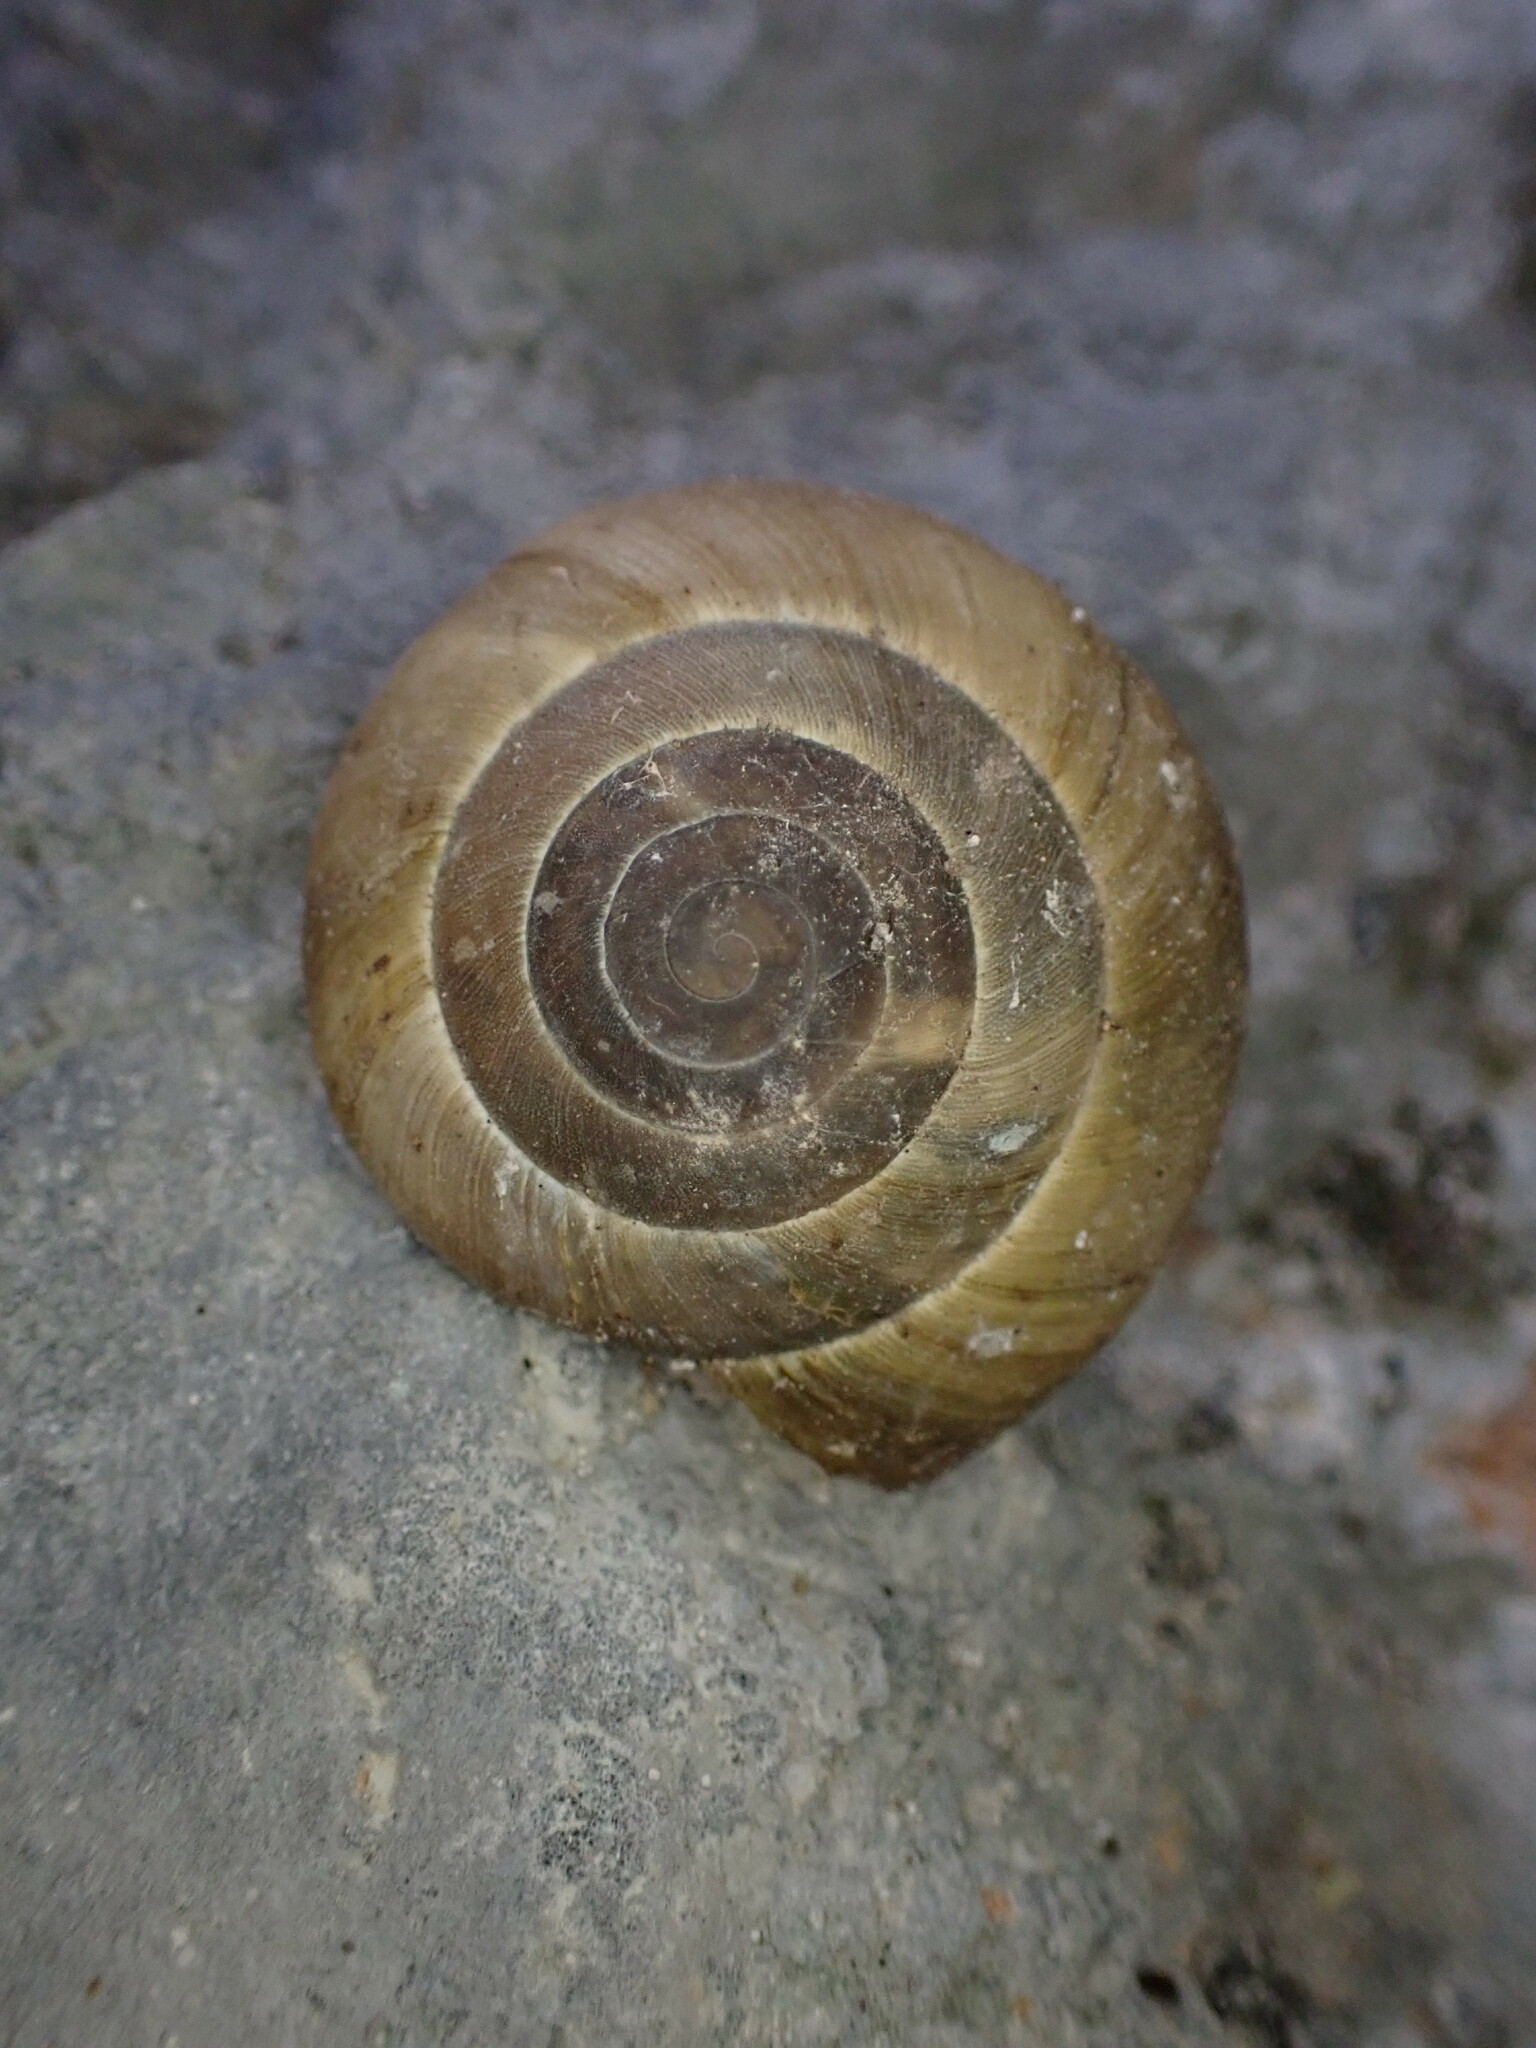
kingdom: Animalia
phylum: Mollusca
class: Gastropoda
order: Stylommatophora
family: Zonitidae
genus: Zonites
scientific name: Zonites algirus
